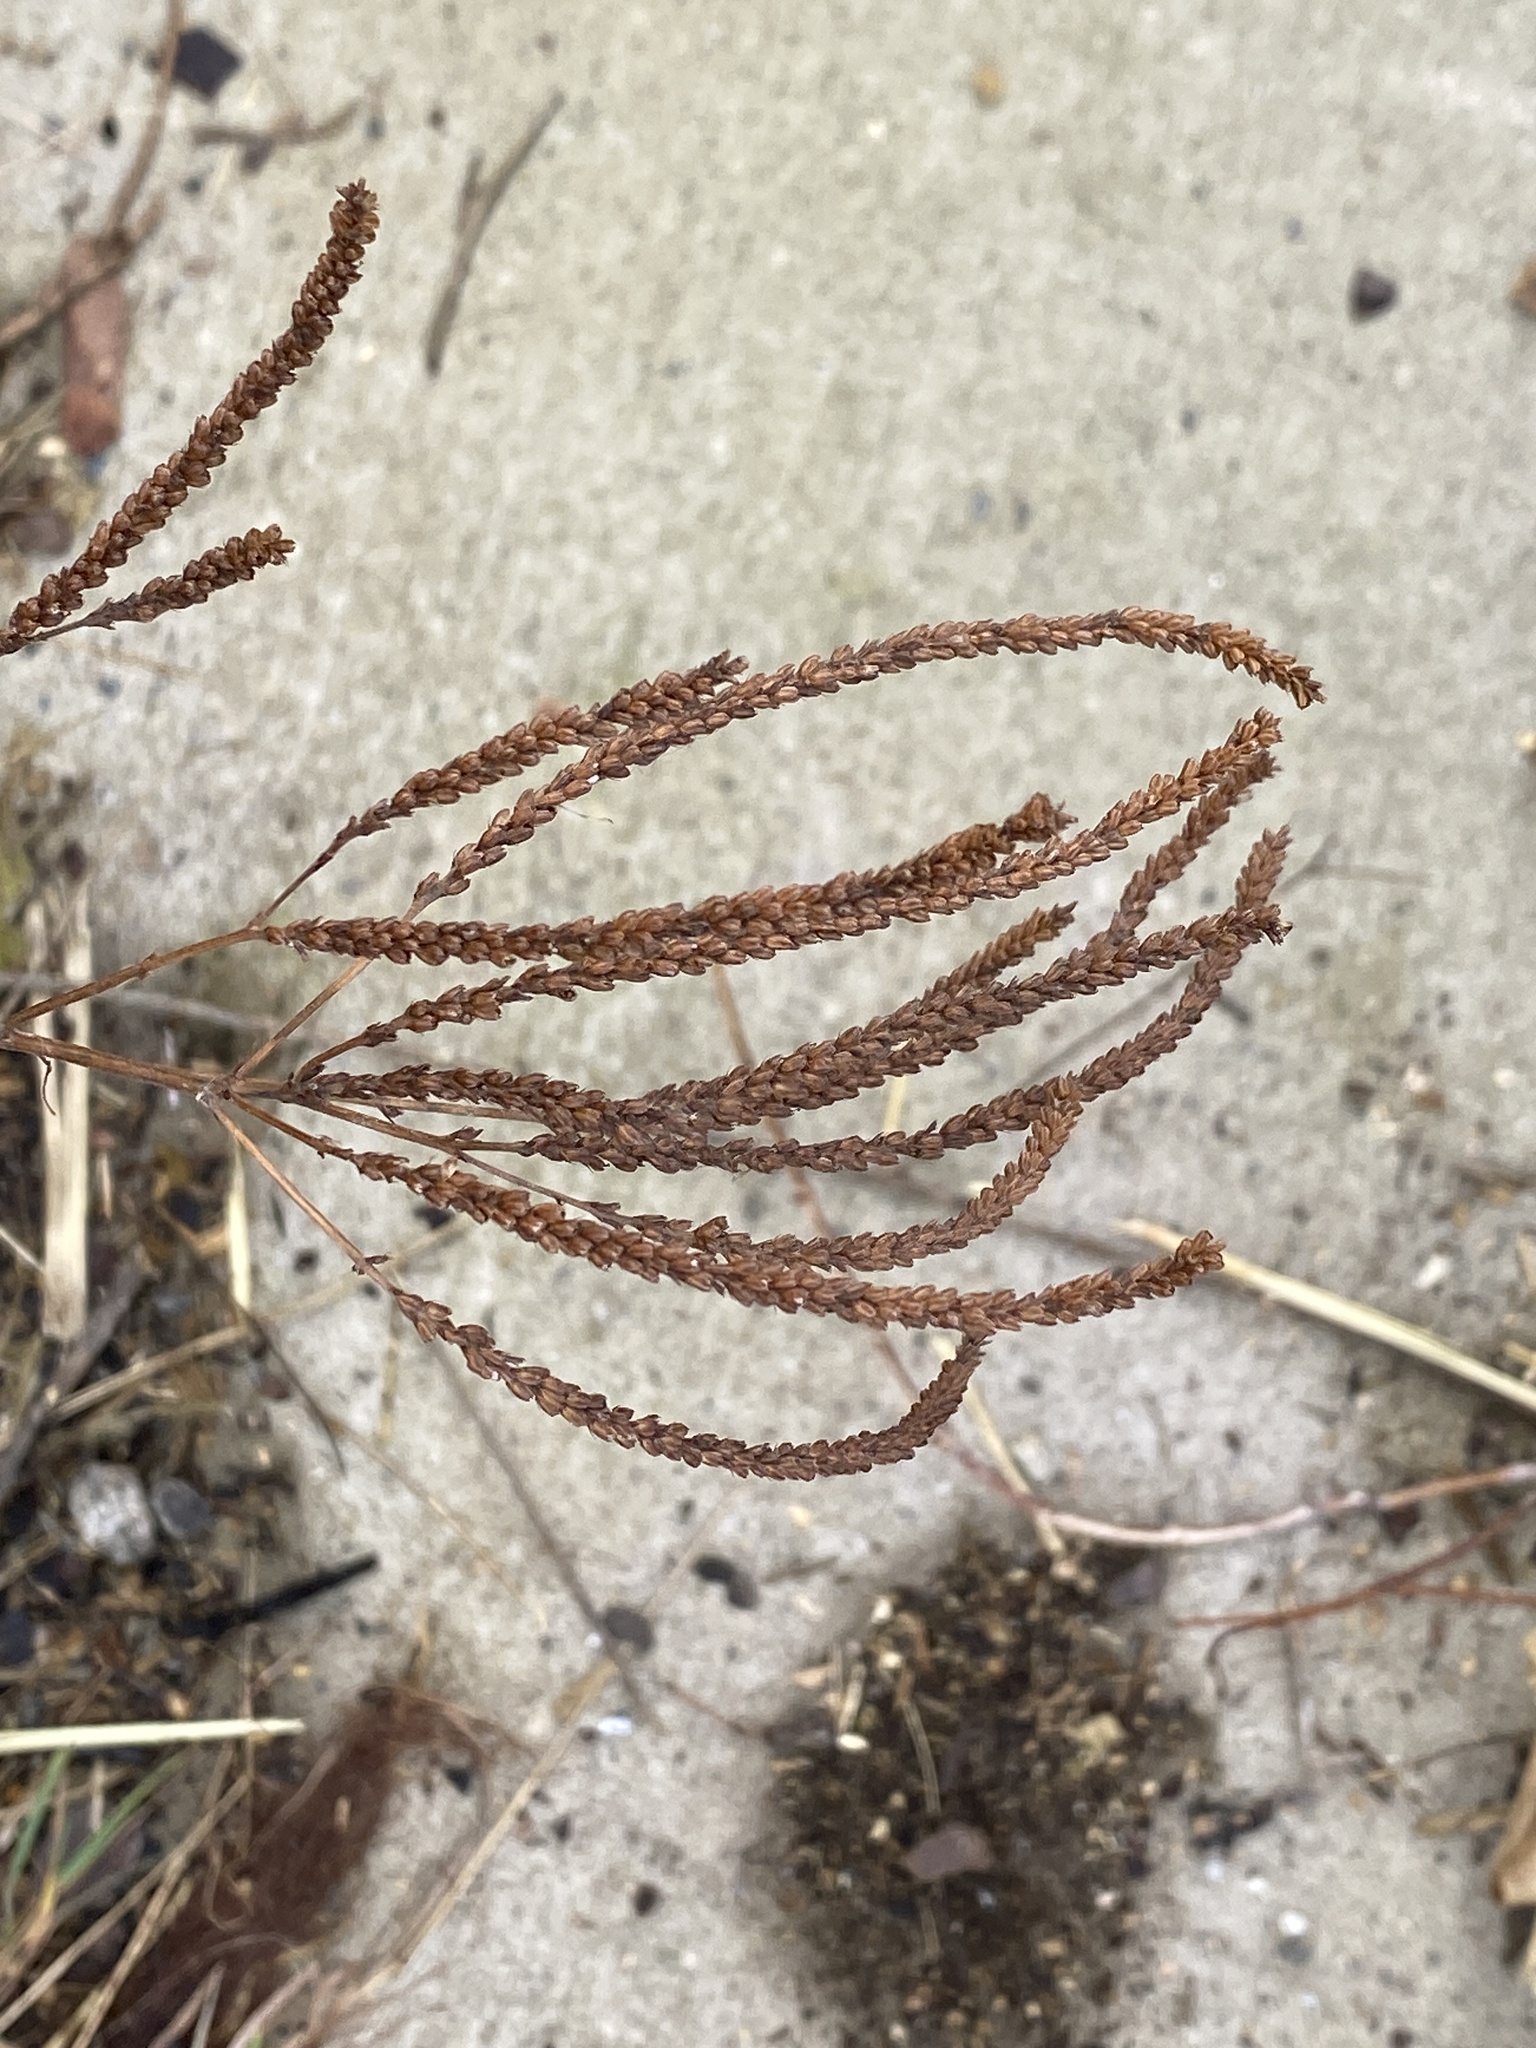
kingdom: Plantae
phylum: Tracheophyta
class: Magnoliopsida
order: Lamiales
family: Verbenaceae
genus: Verbena
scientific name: Verbena hastata
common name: American blue vervain
